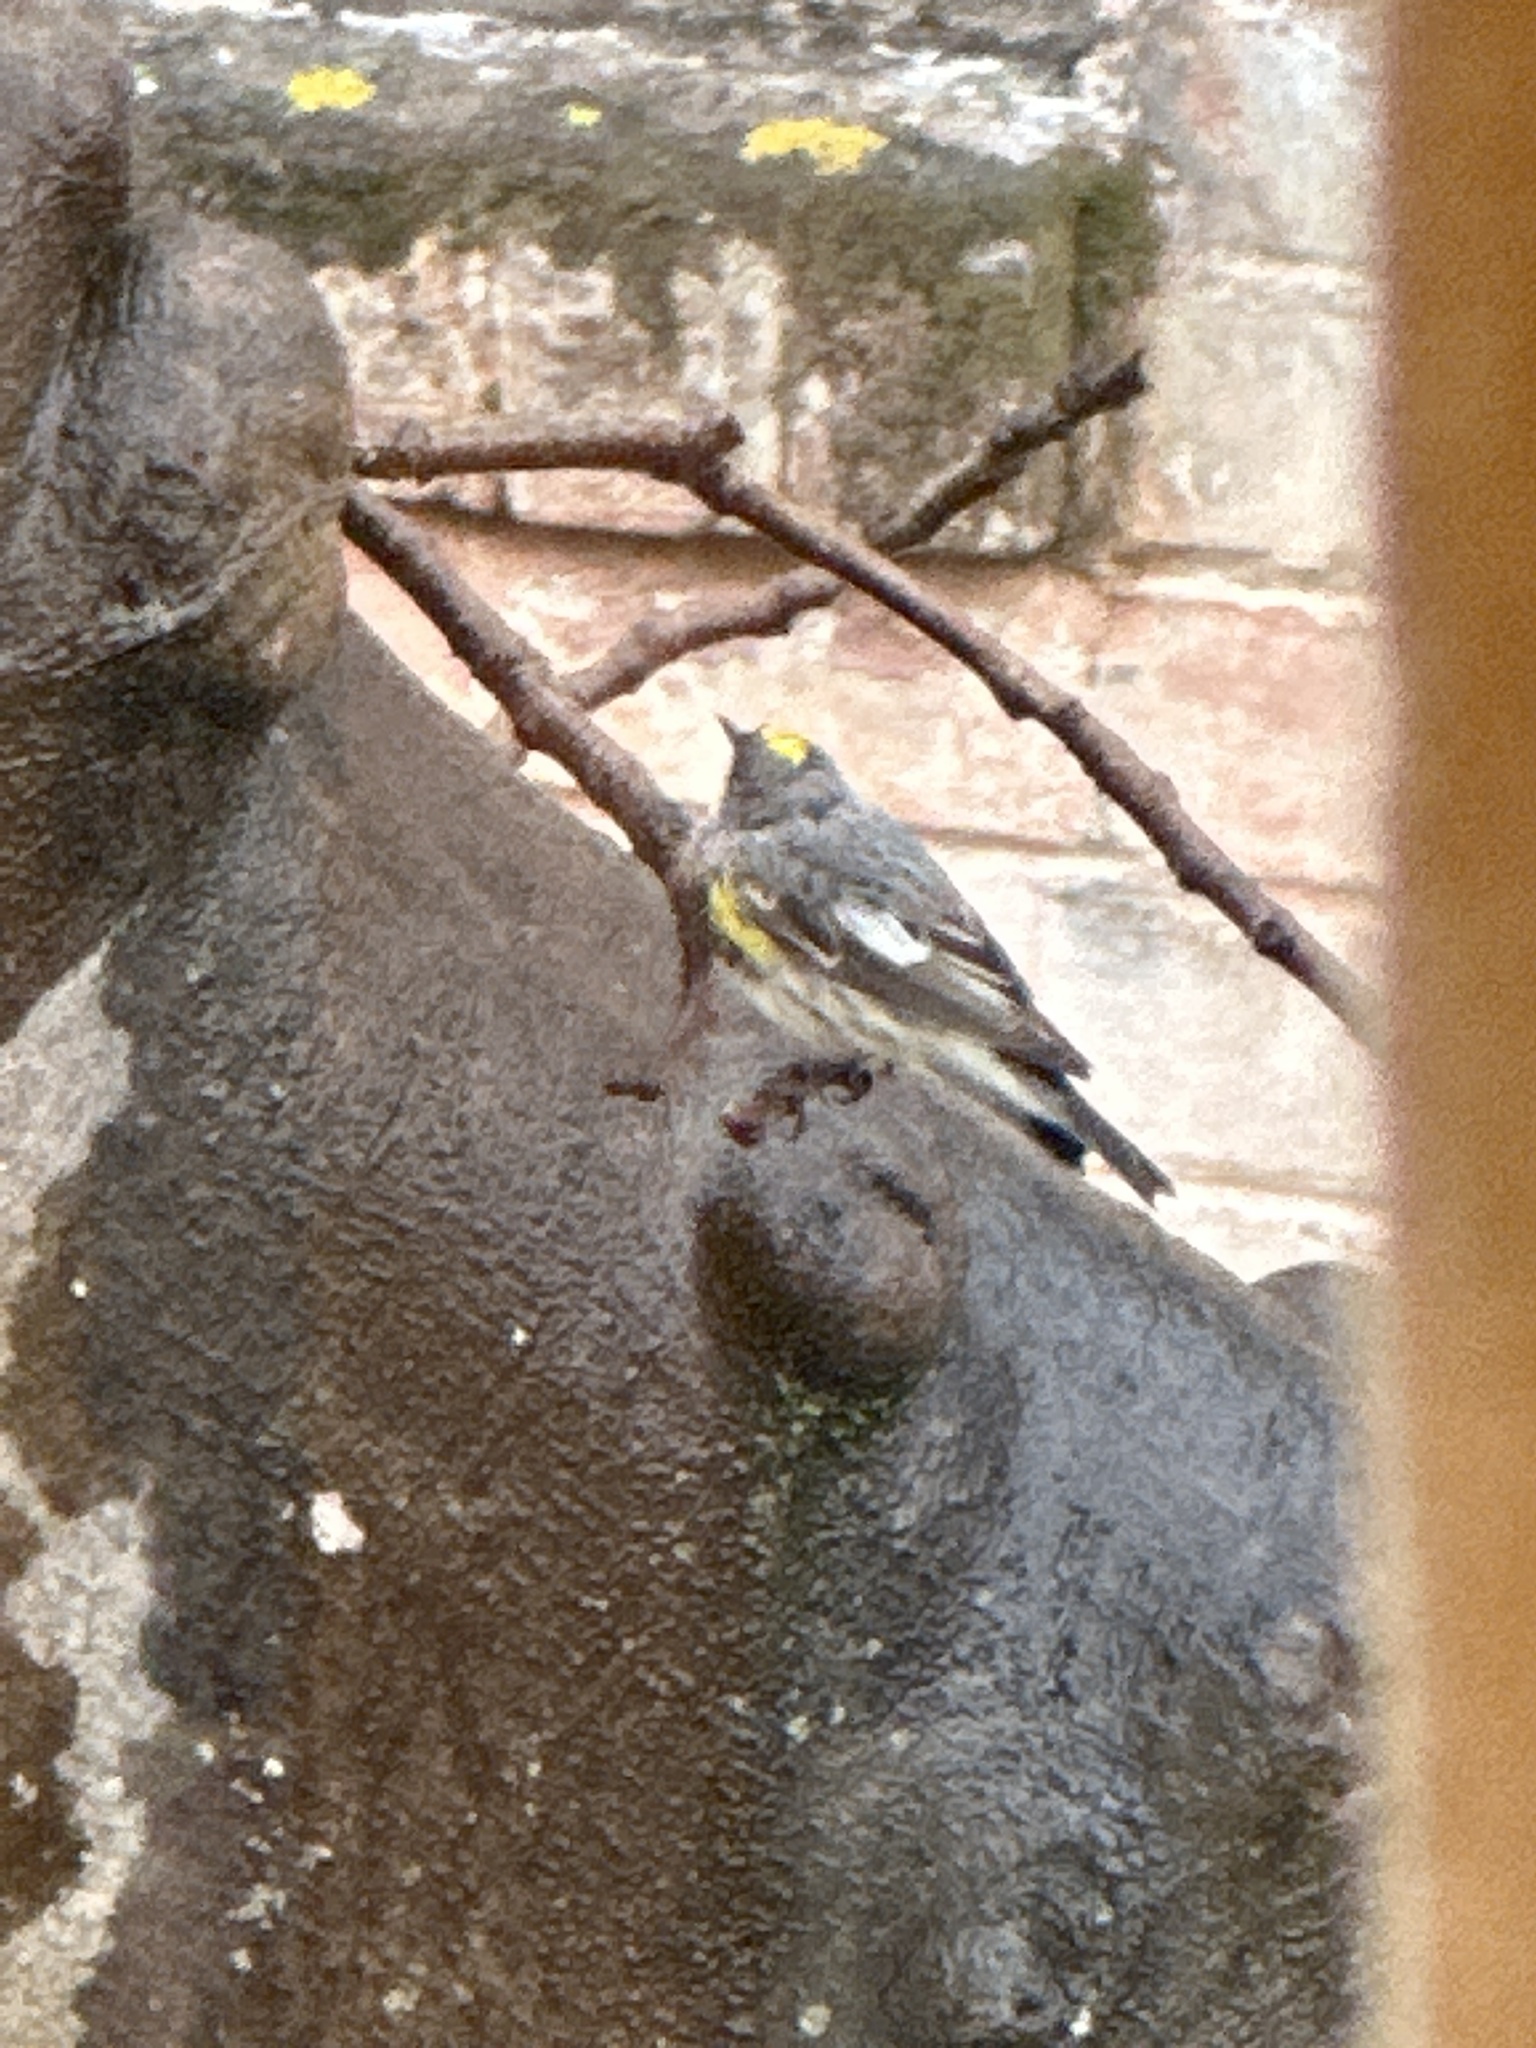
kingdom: Animalia
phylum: Chordata
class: Aves
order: Passeriformes
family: Parulidae
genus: Setophaga
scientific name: Setophaga coronata
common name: Myrtle warbler
